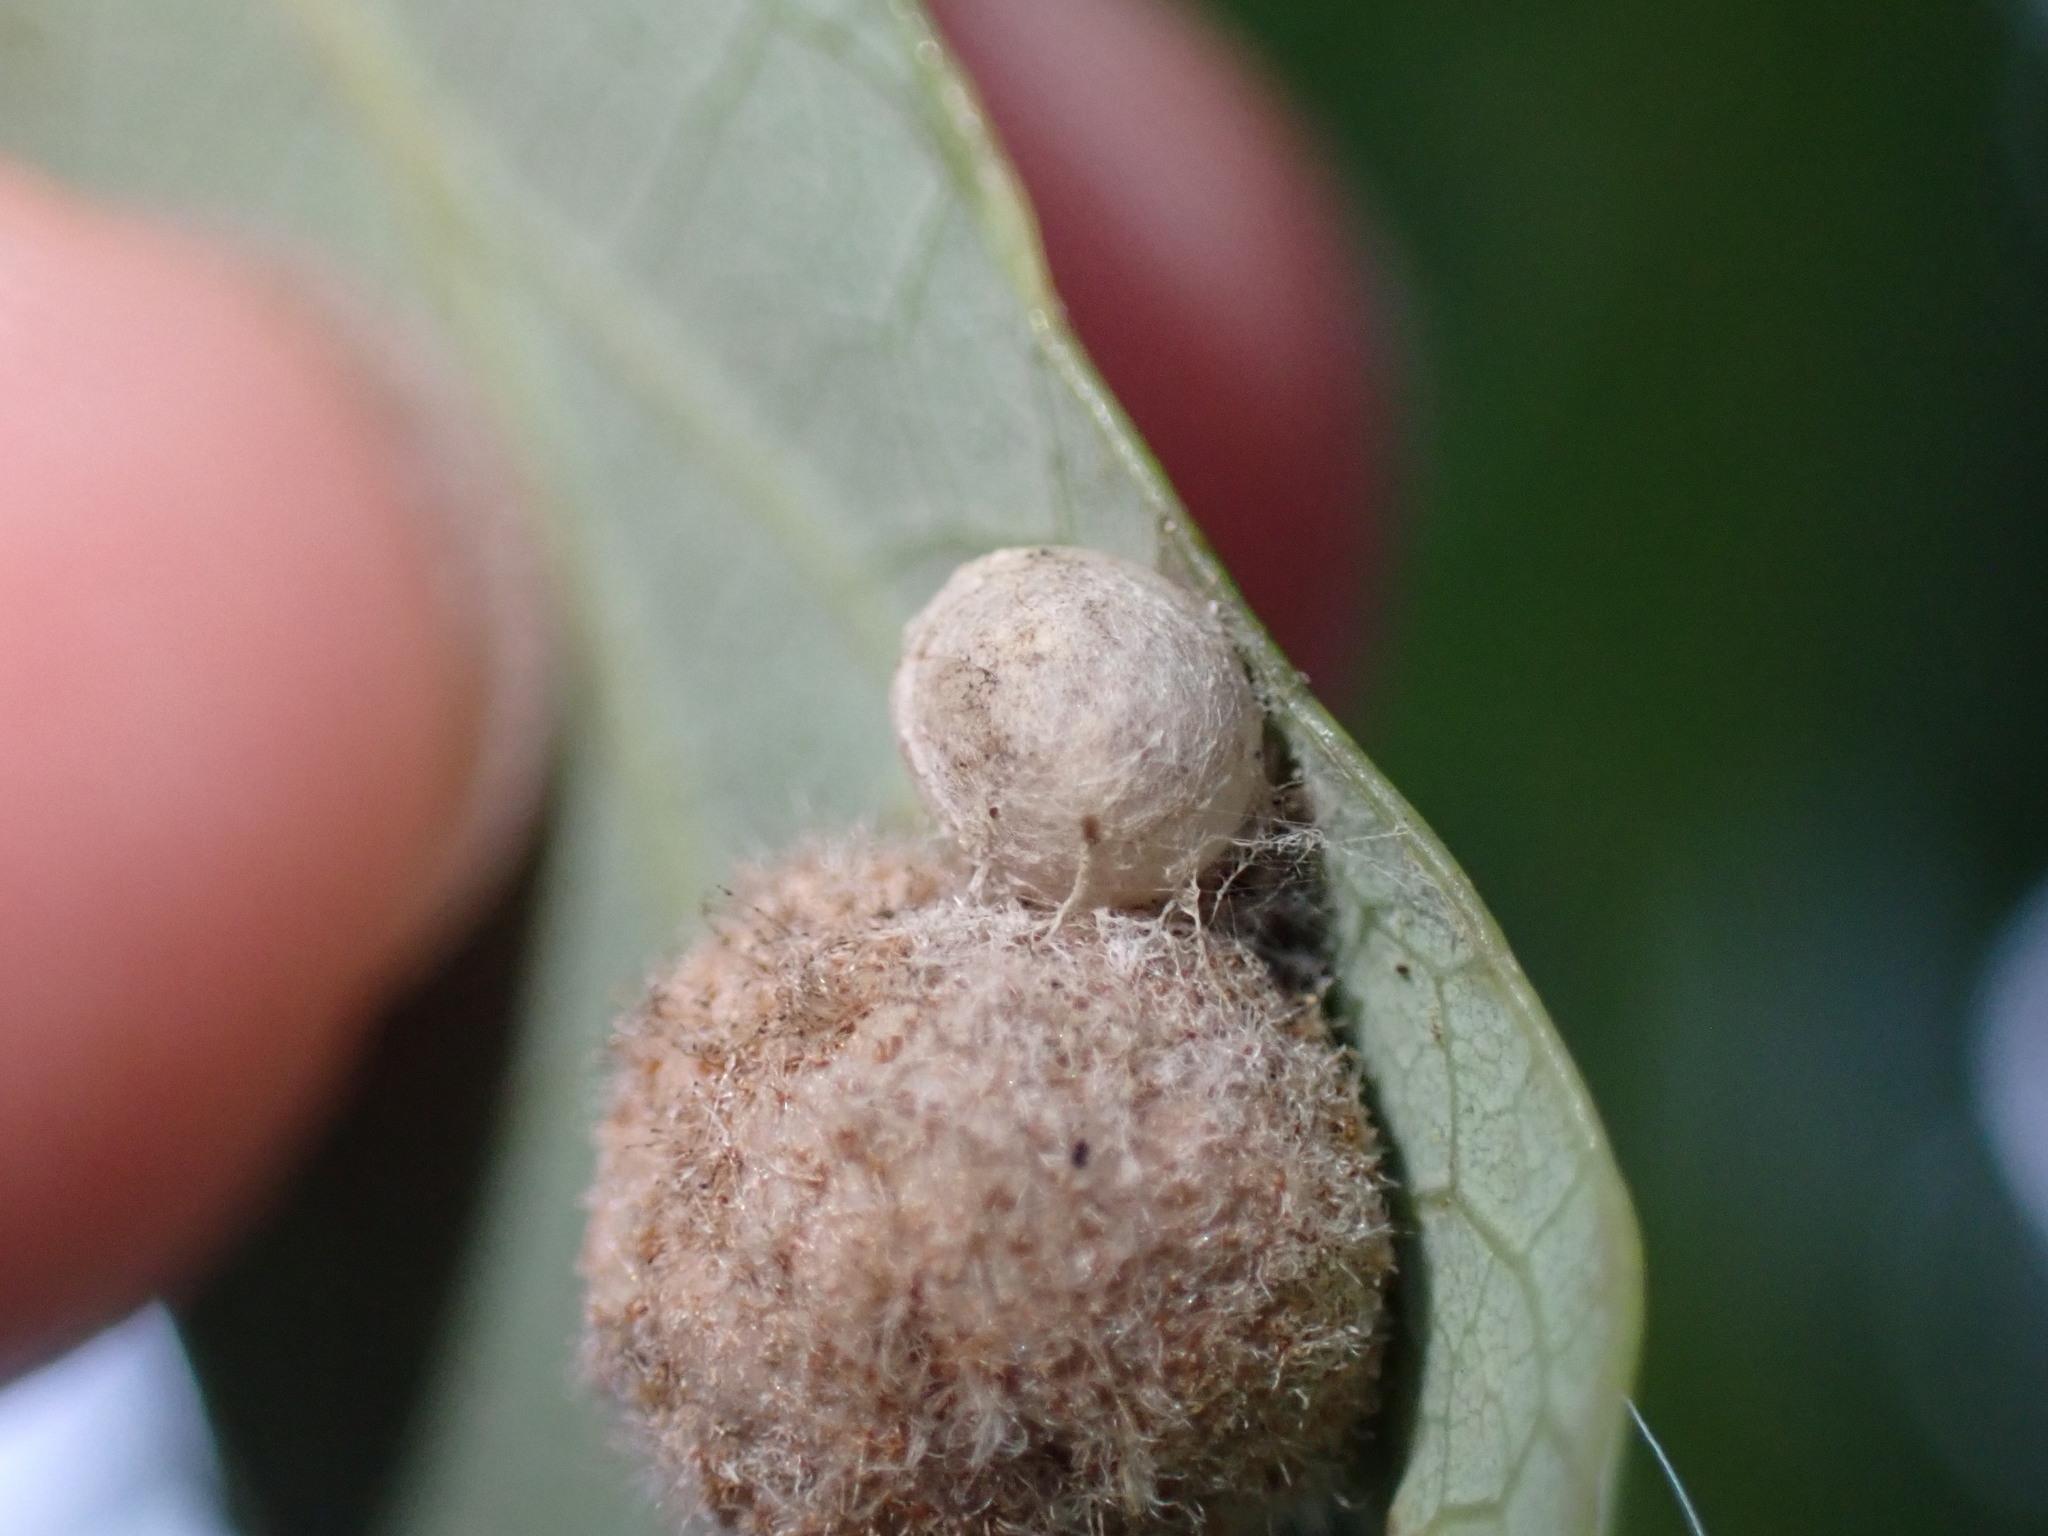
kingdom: Animalia
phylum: Arthropoda
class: Insecta
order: Hymenoptera
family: Cynipidae
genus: Philonix
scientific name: Philonix fulvicollis
